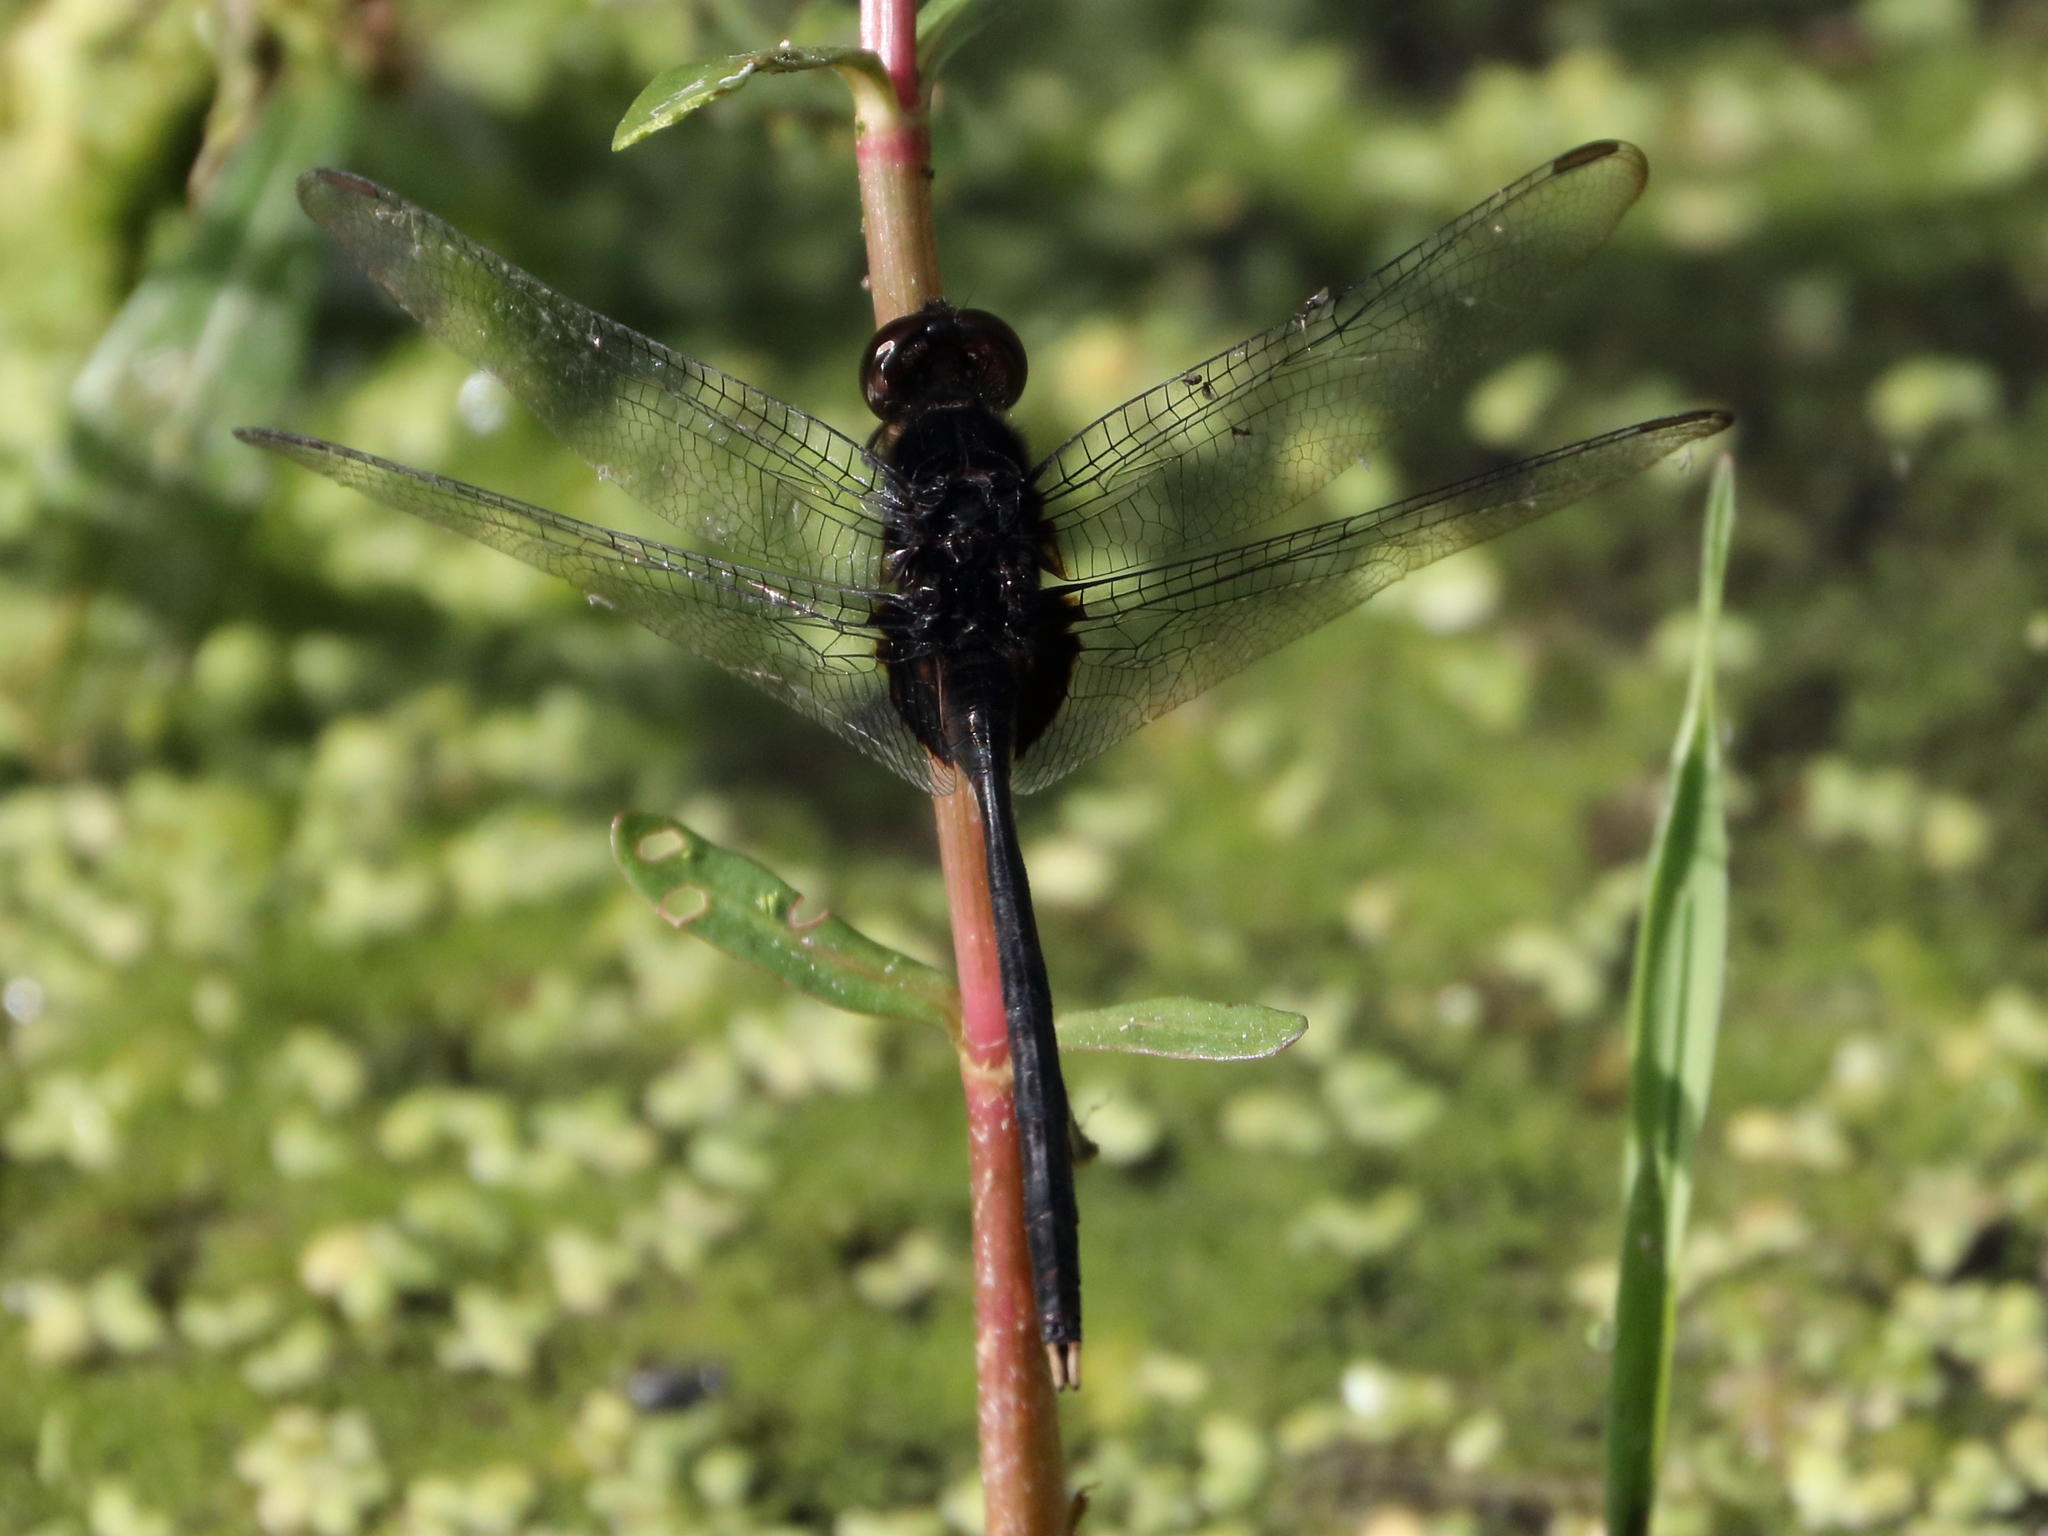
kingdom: Animalia
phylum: Arthropoda
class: Insecta
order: Odonata
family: Libellulidae
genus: Erythemis
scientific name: Erythemis plebeja
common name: Pin-tailed pondhawk
